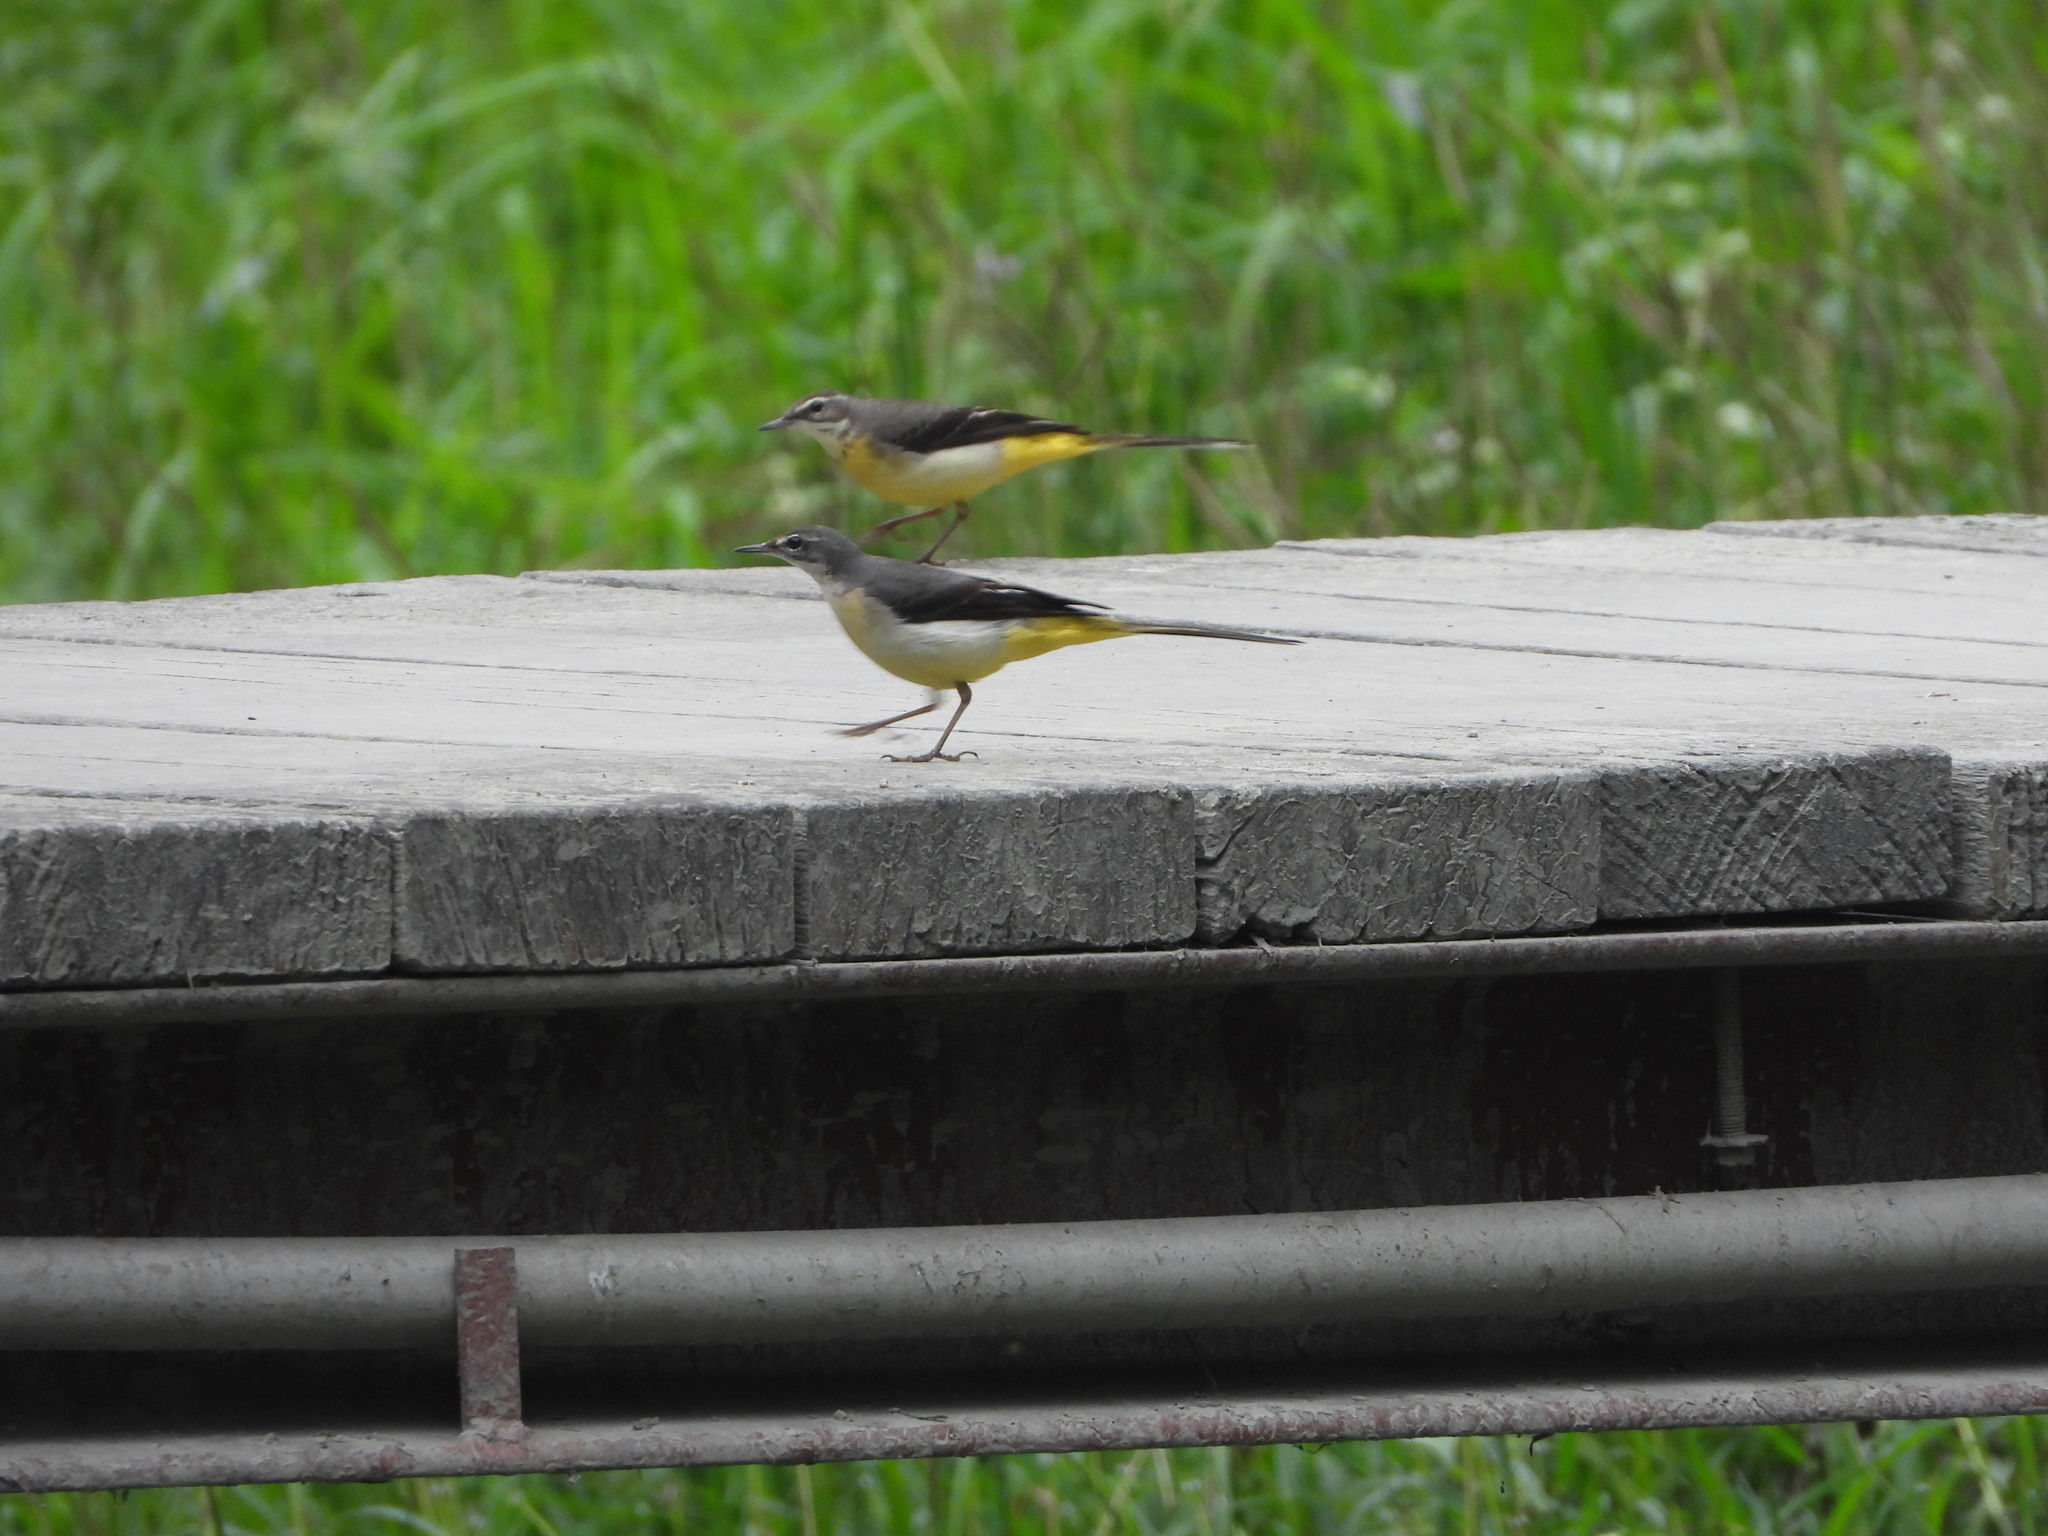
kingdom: Animalia
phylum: Chordata
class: Aves
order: Passeriformes
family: Motacillidae
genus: Motacilla
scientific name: Motacilla cinerea
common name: Grey wagtail
